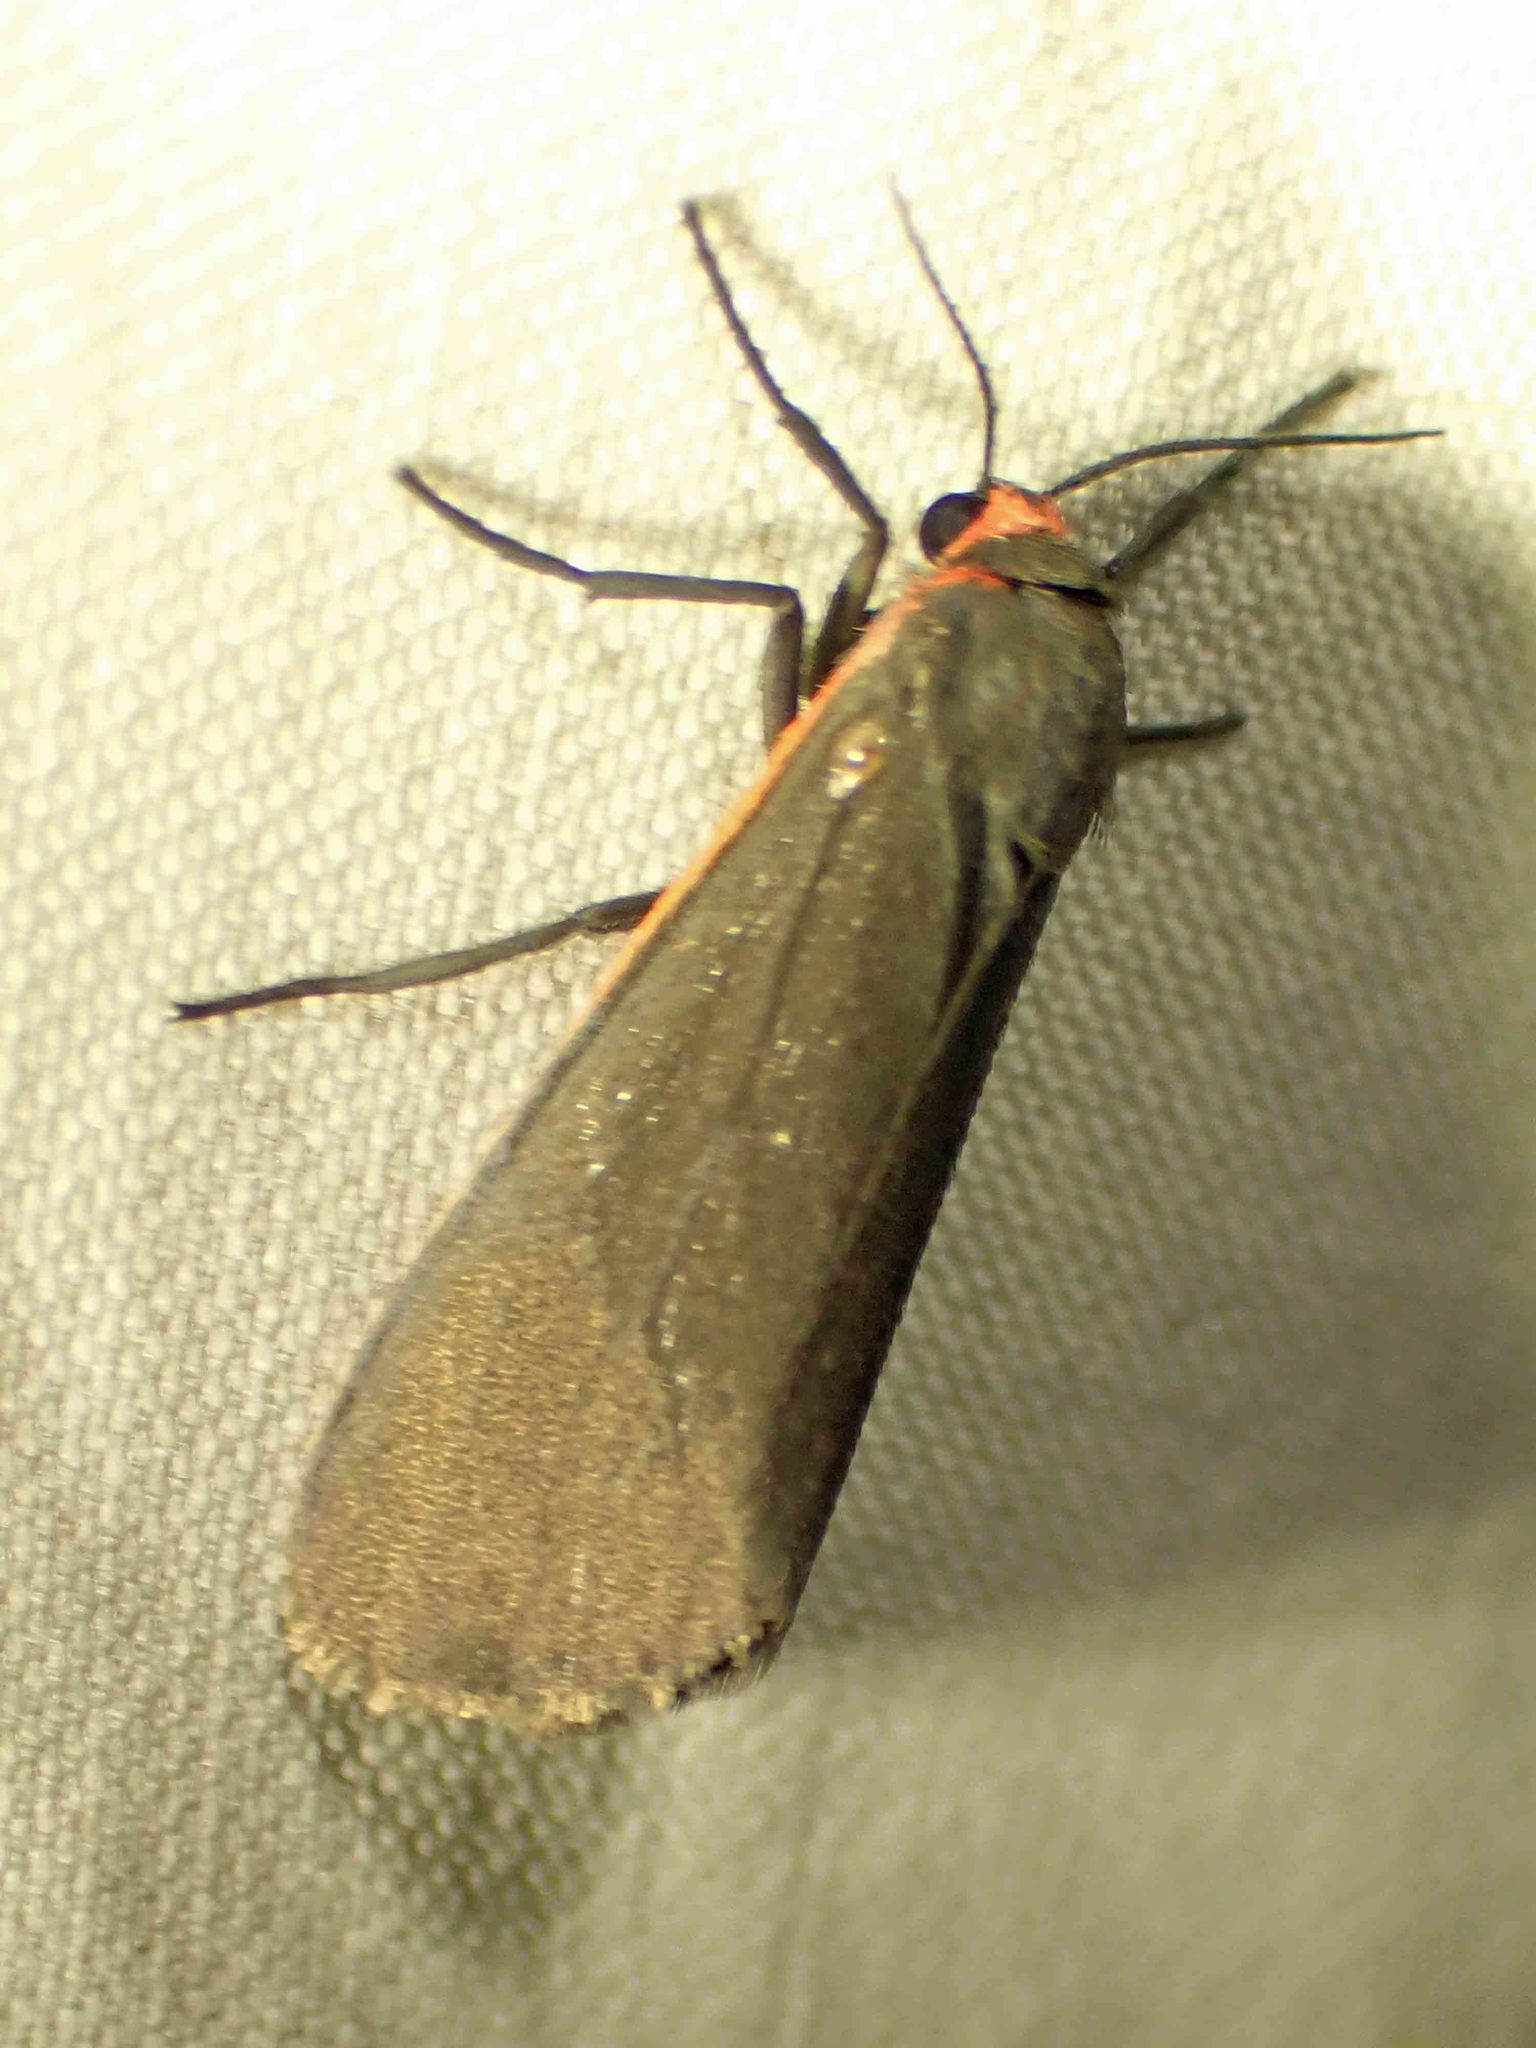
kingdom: Animalia
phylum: Arthropoda
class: Insecta
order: Lepidoptera
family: Erebidae
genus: Virbia
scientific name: Virbia laeta
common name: Joyful holomelina moth
